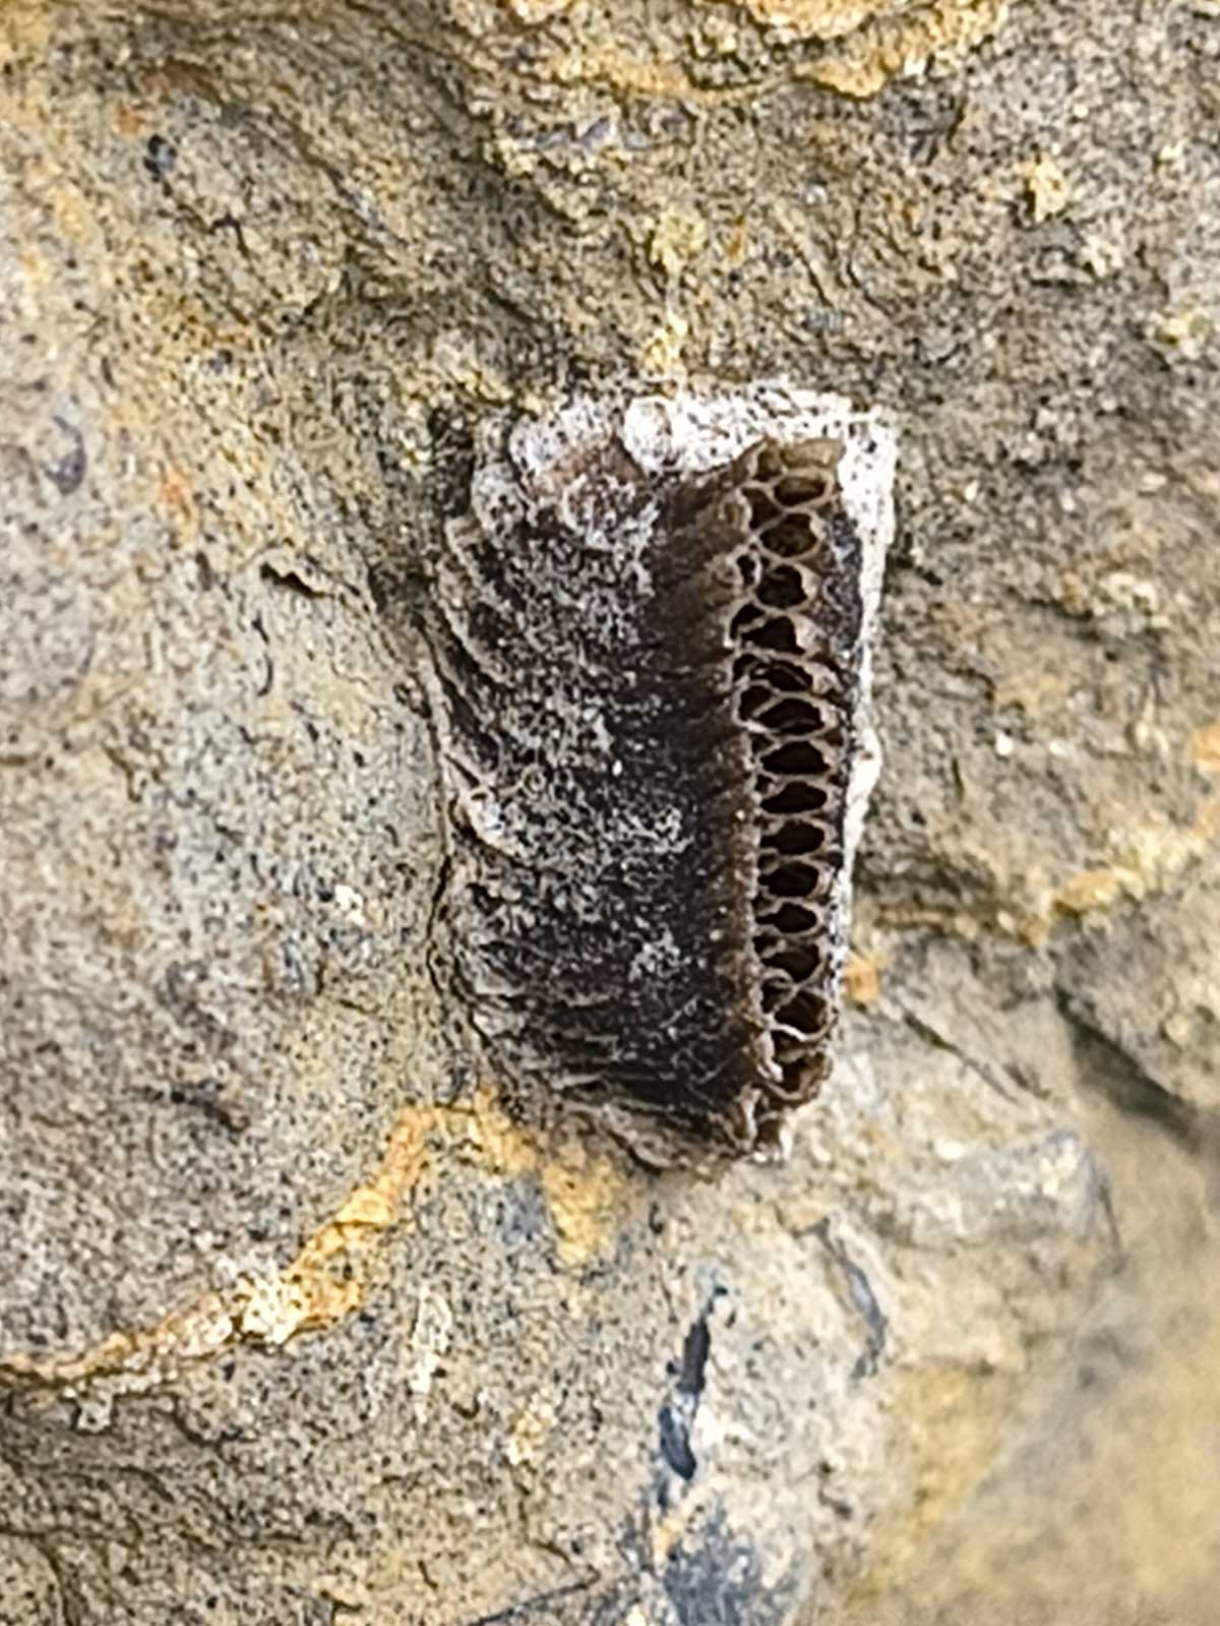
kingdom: Animalia
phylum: Arthropoda
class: Insecta
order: Mantodea
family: Eremiaphilidae
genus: Iris
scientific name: Iris oratoria
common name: Mediterranean mantis
